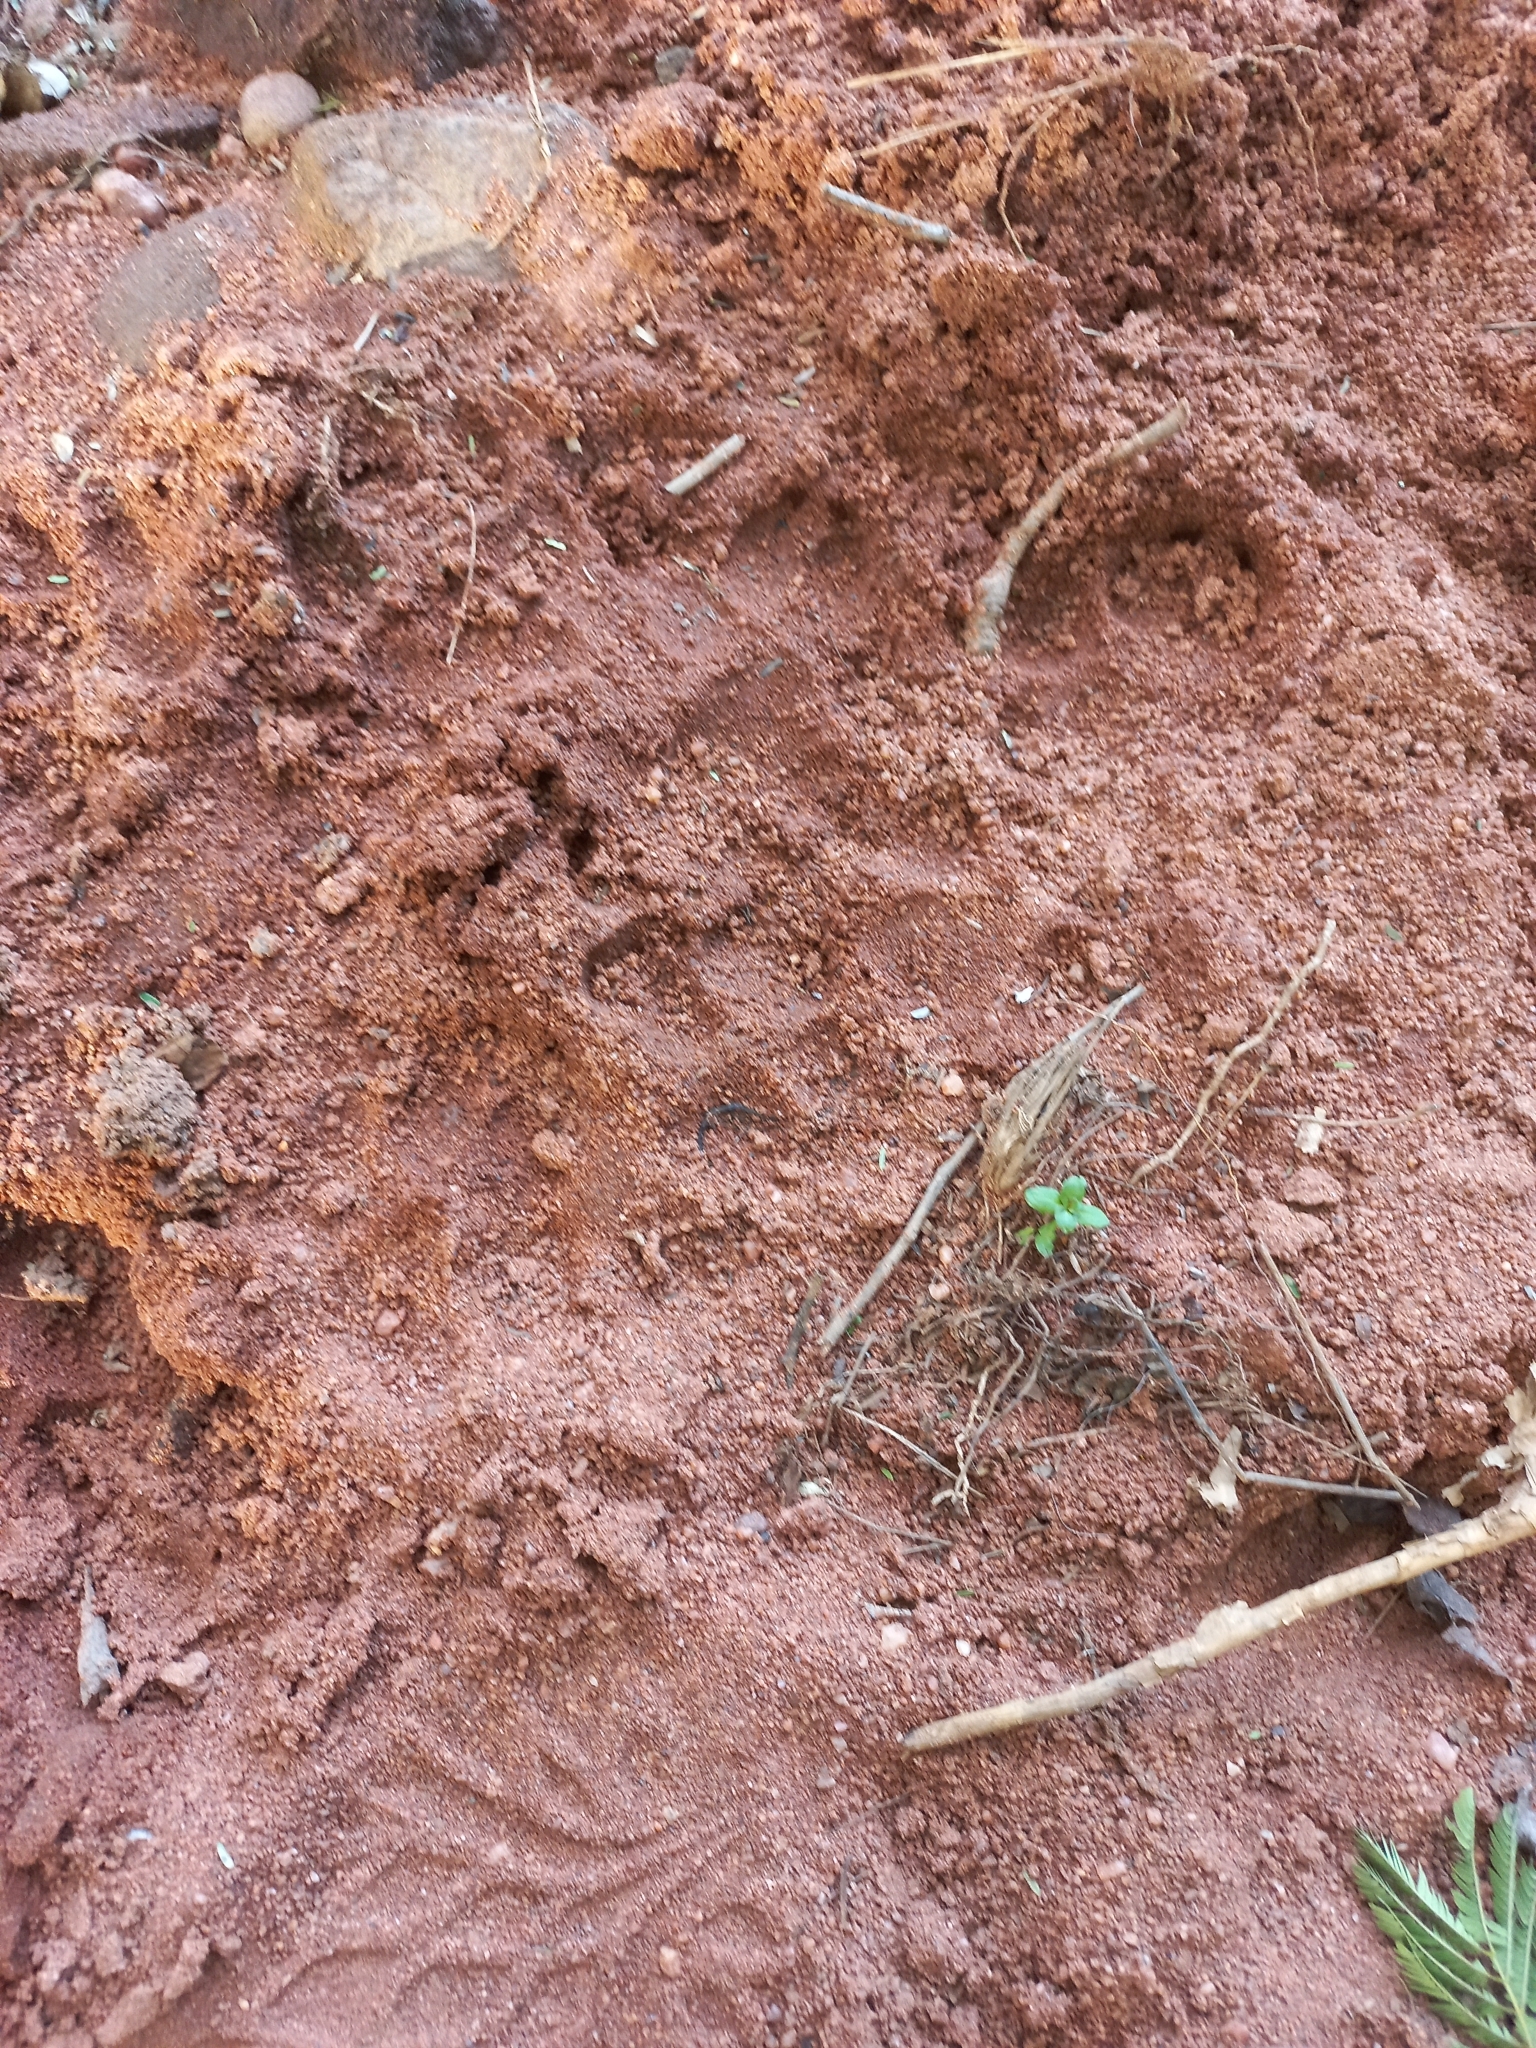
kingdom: Animalia
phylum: Chordata
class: Mammalia
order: Carnivora
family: Canidae
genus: Lycaon
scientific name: Lycaon pictus
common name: African wild dog
